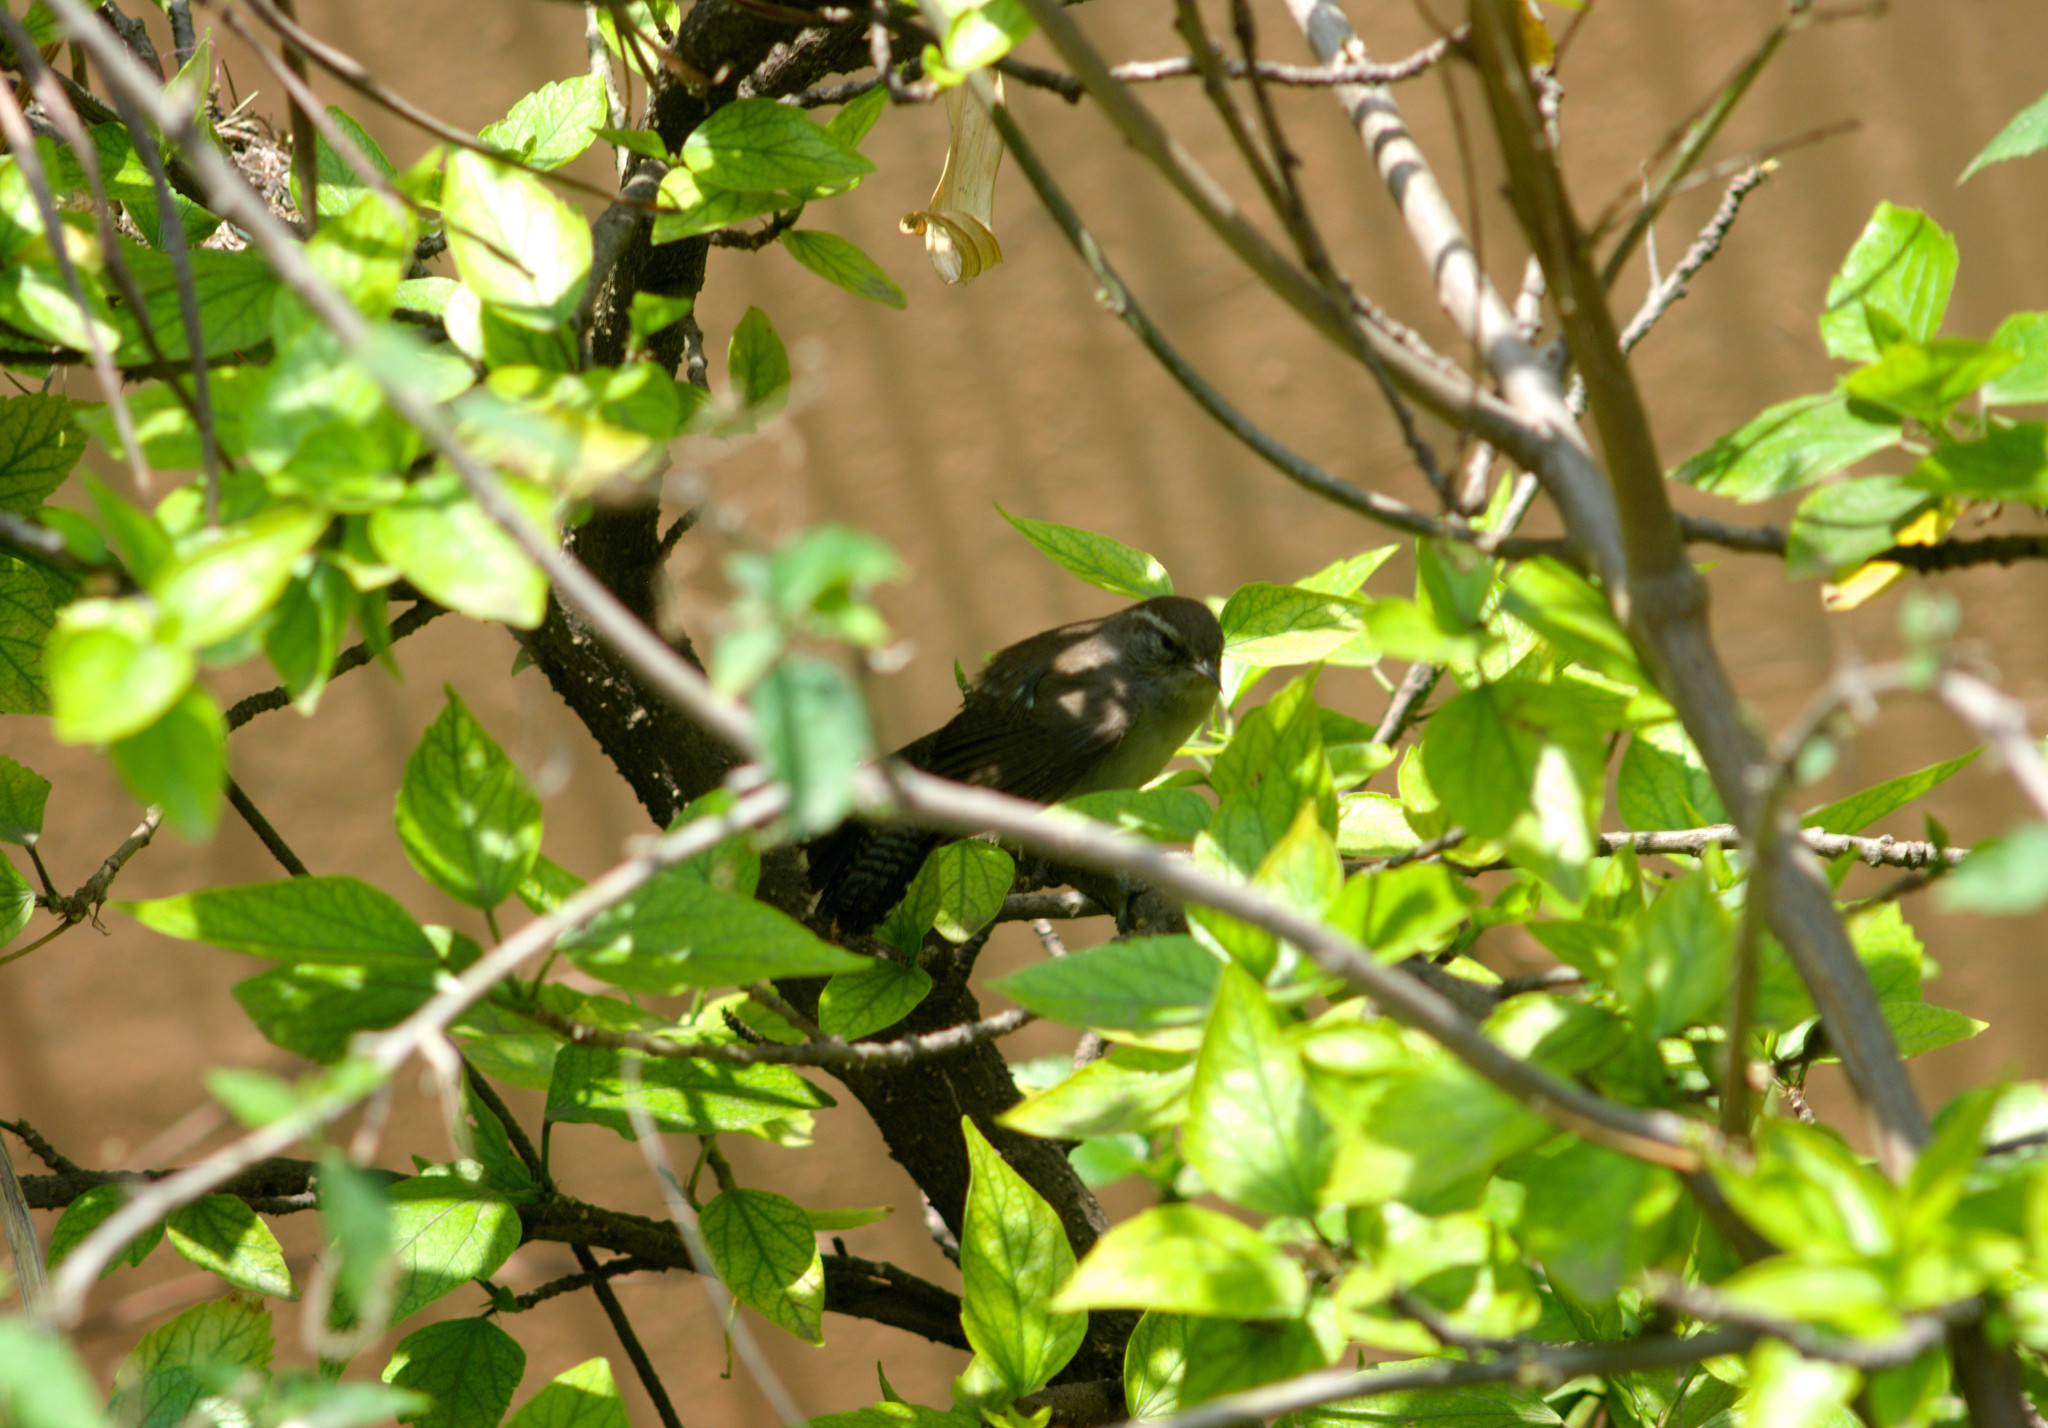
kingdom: Animalia
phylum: Chordata
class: Aves
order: Passeriformes
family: Troglodytidae
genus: Thryomanes
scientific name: Thryomanes bewickii
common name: Bewick's wren
